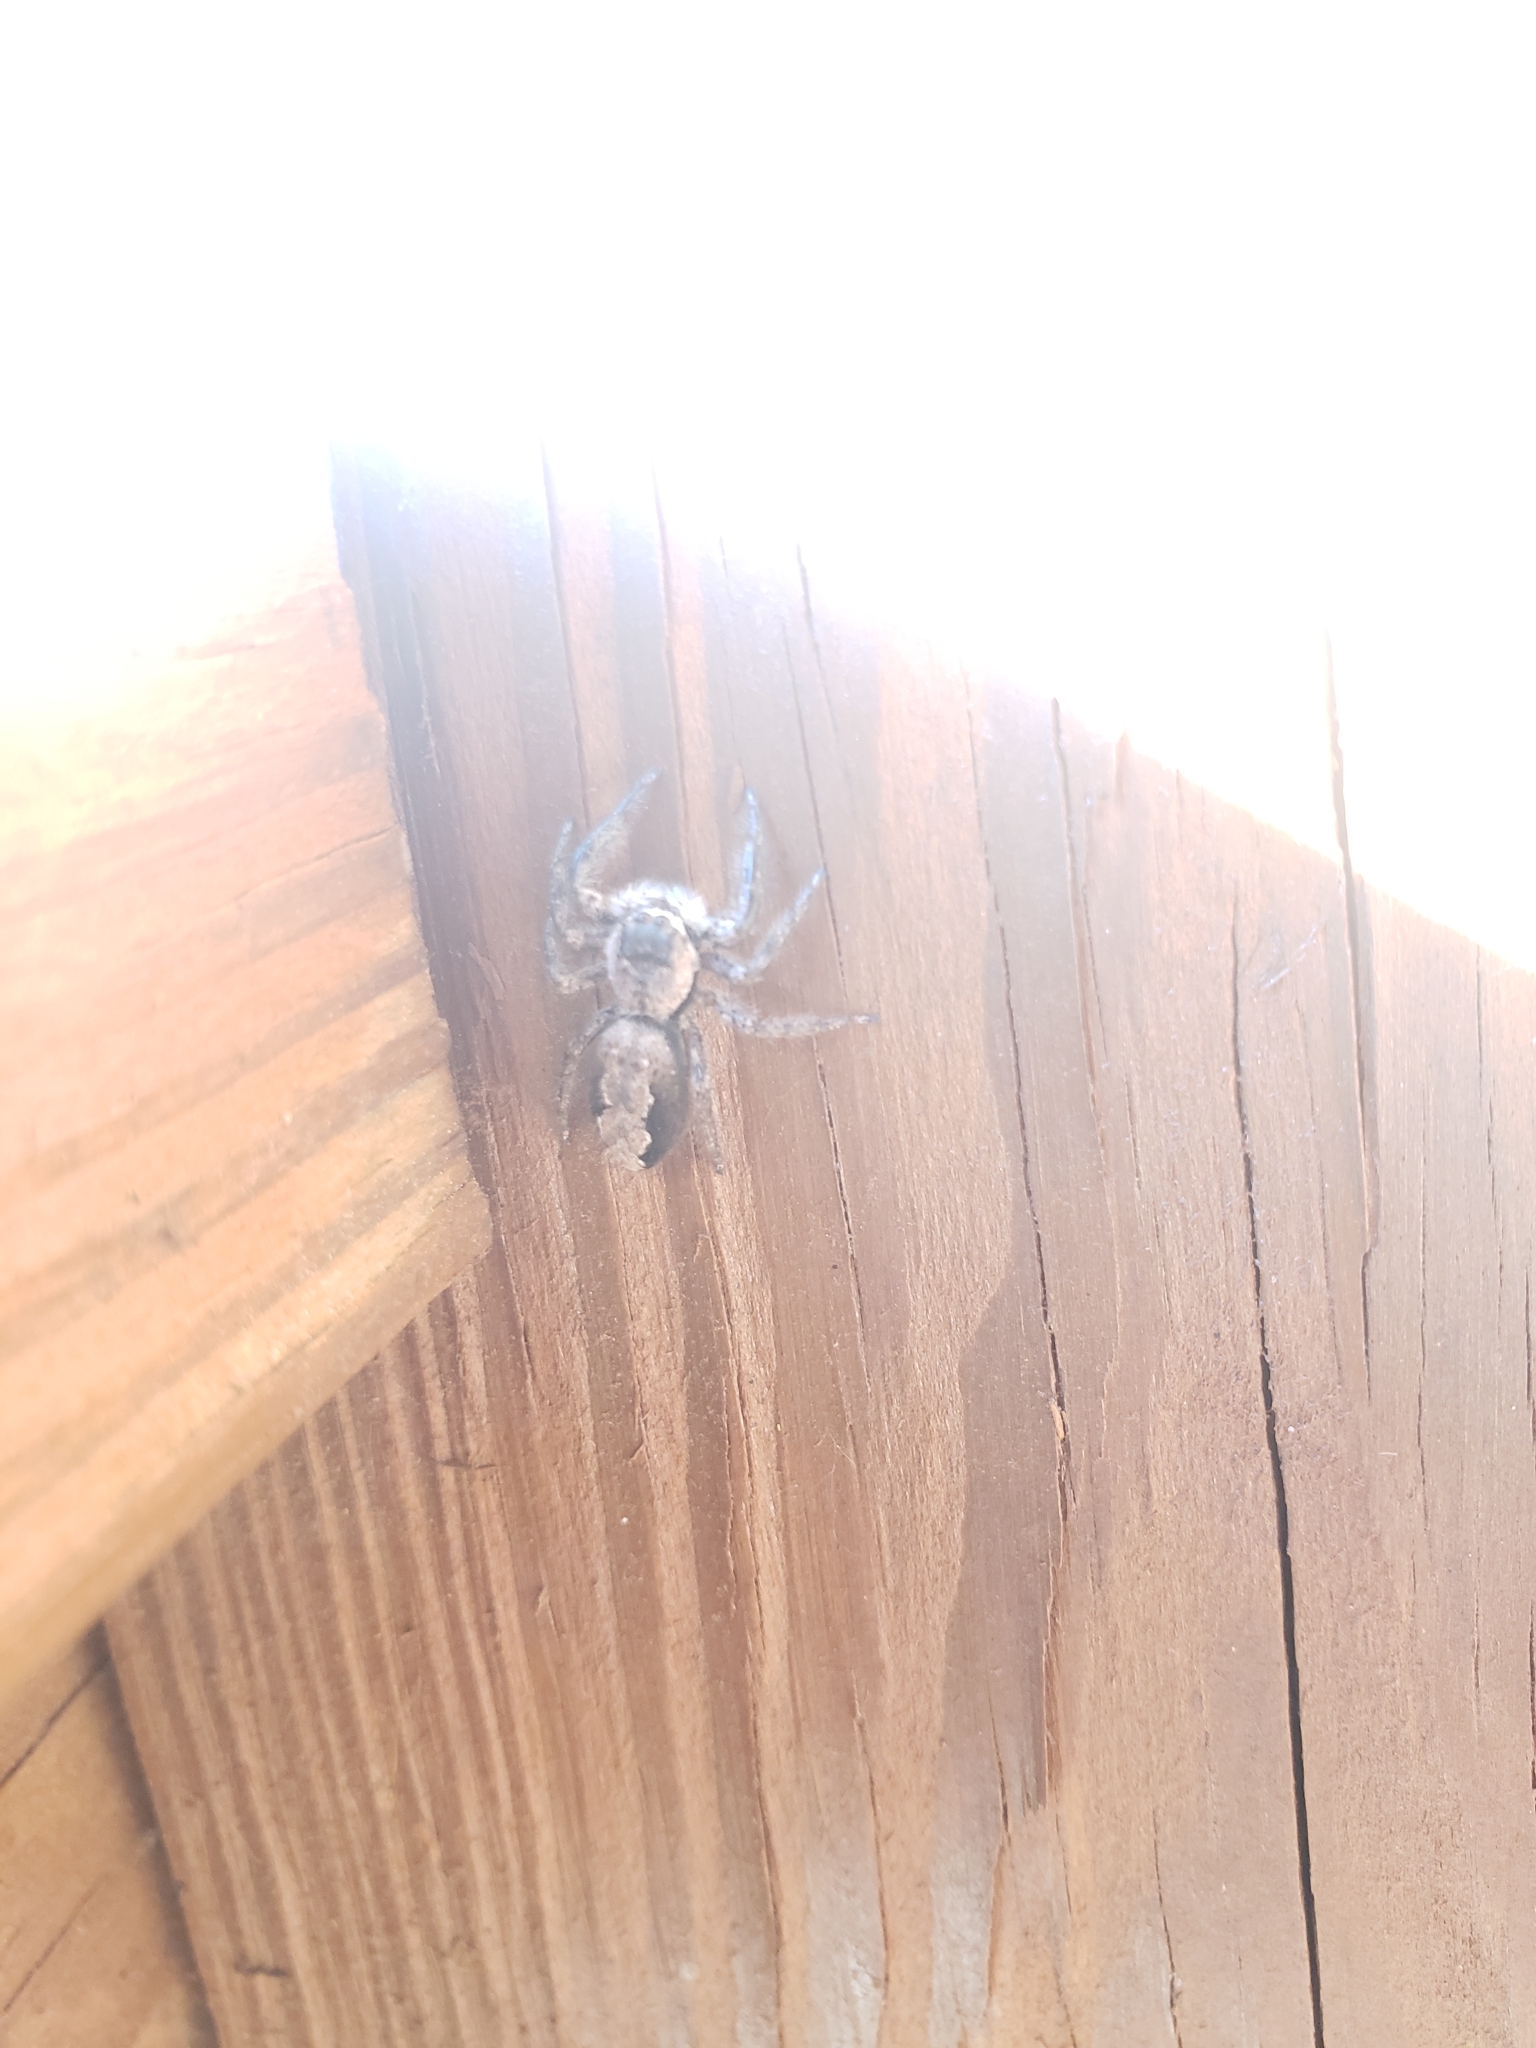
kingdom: Animalia
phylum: Arthropoda
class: Arachnida
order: Araneae
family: Salticidae
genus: Platycryptus
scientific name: Platycryptus undatus
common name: Tan jumping spider
